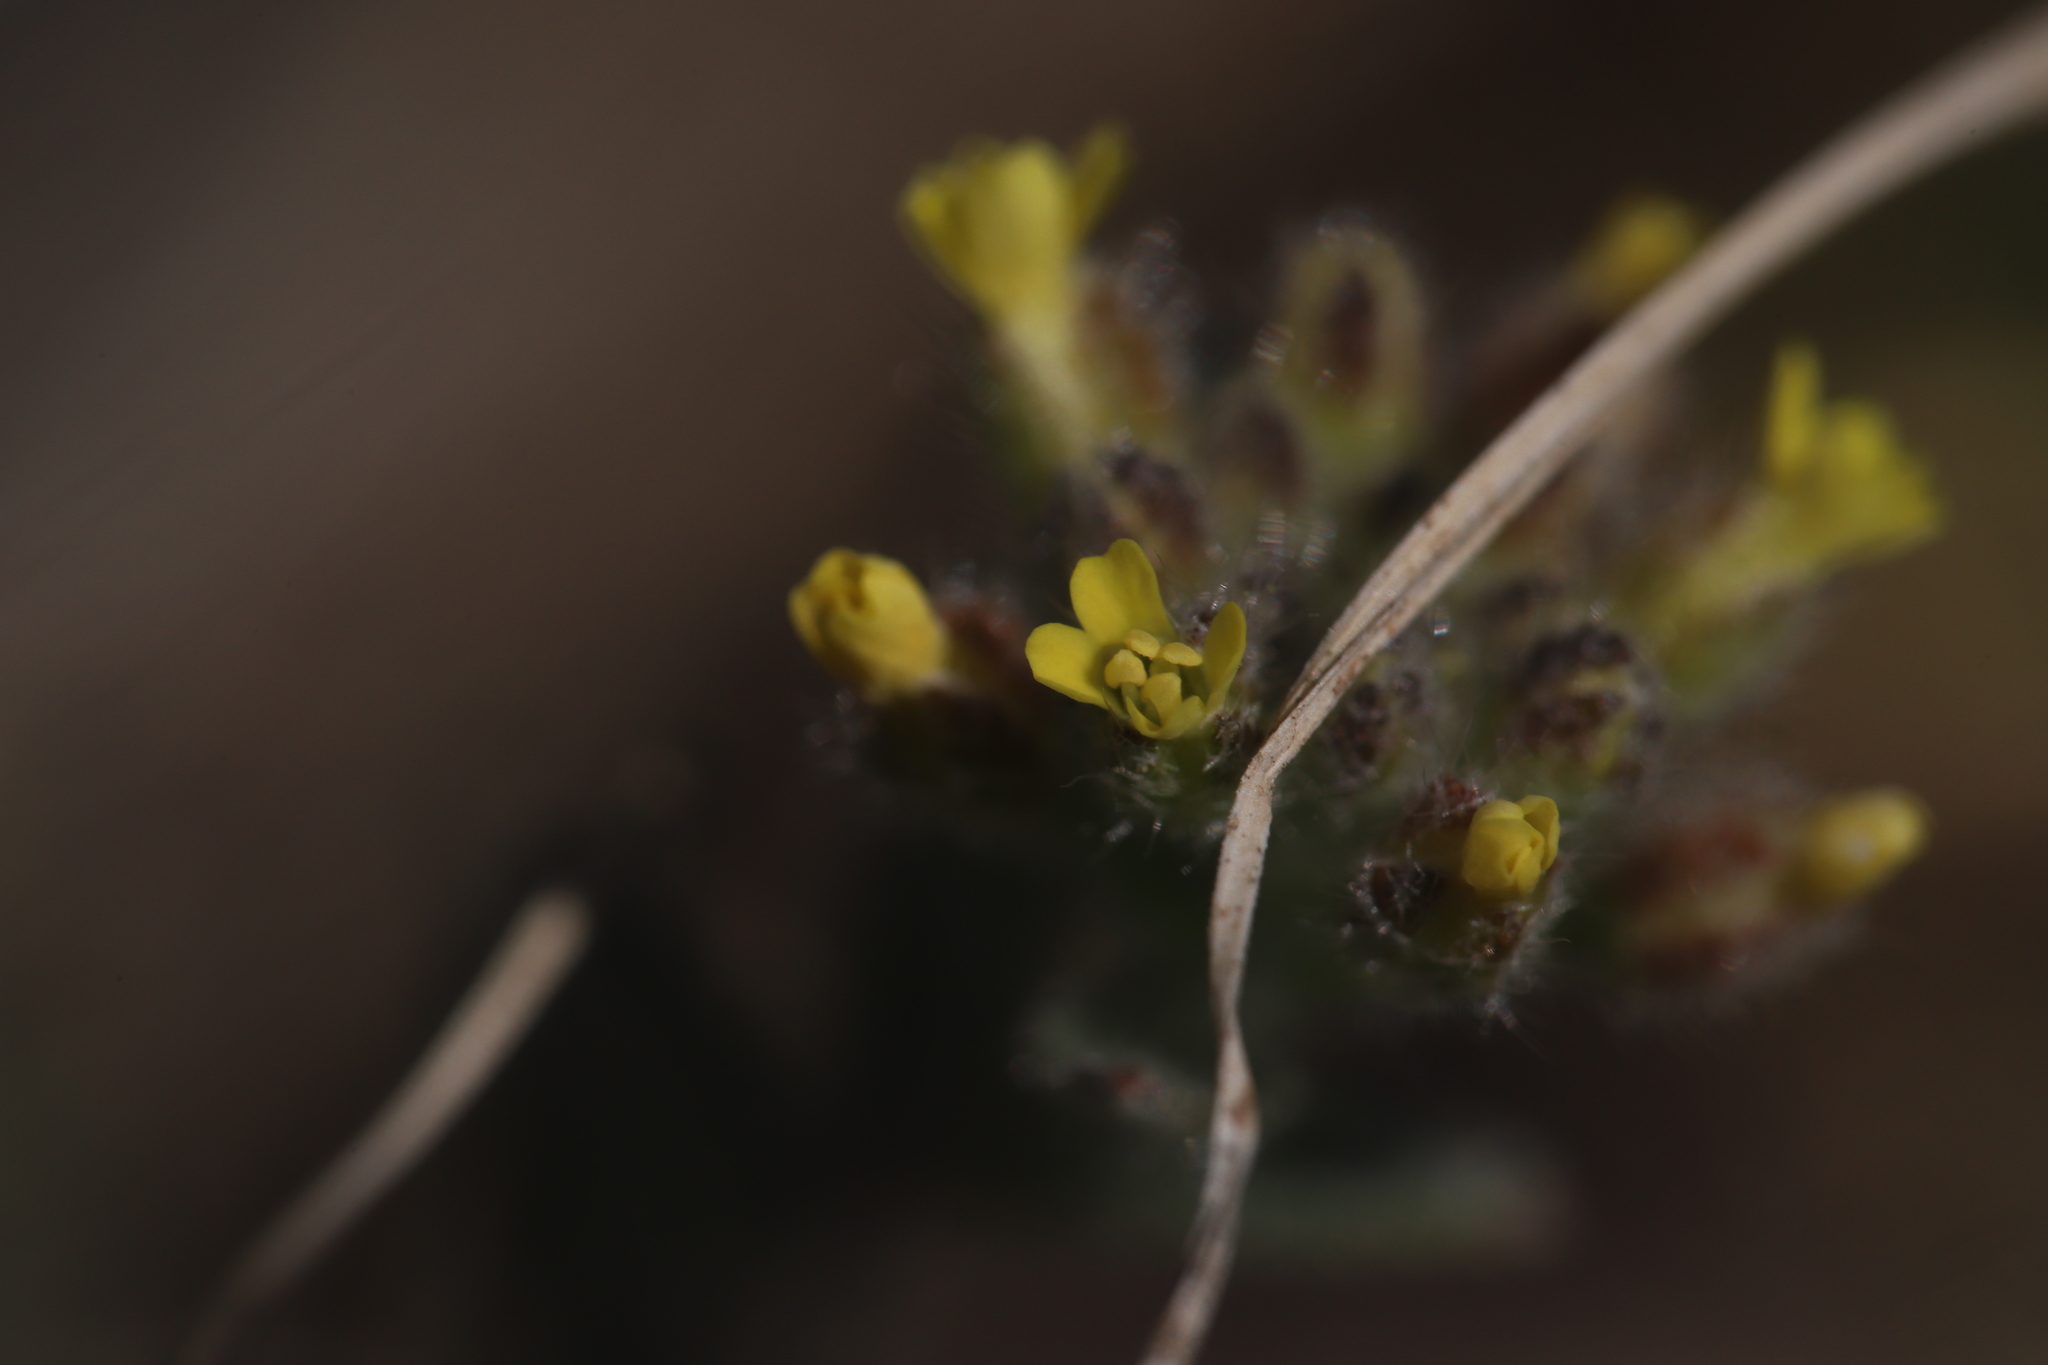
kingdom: Plantae
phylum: Tracheophyta
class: Magnoliopsida
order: Brassicales
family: Brassicaceae
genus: Alyssum
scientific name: Alyssum
